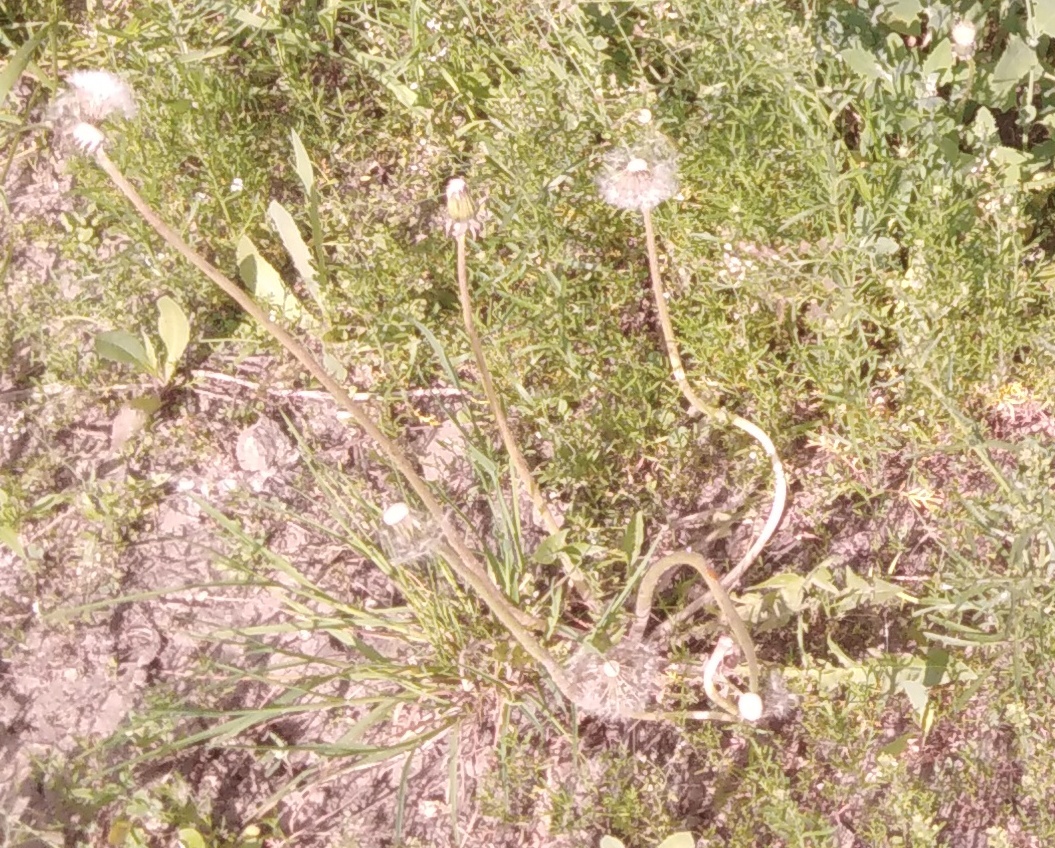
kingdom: Plantae
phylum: Tracheophyta
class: Magnoliopsida
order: Asterales
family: Asteraceae
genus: Taraxacum
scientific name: Taraxacum officinale
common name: Common dandelion
